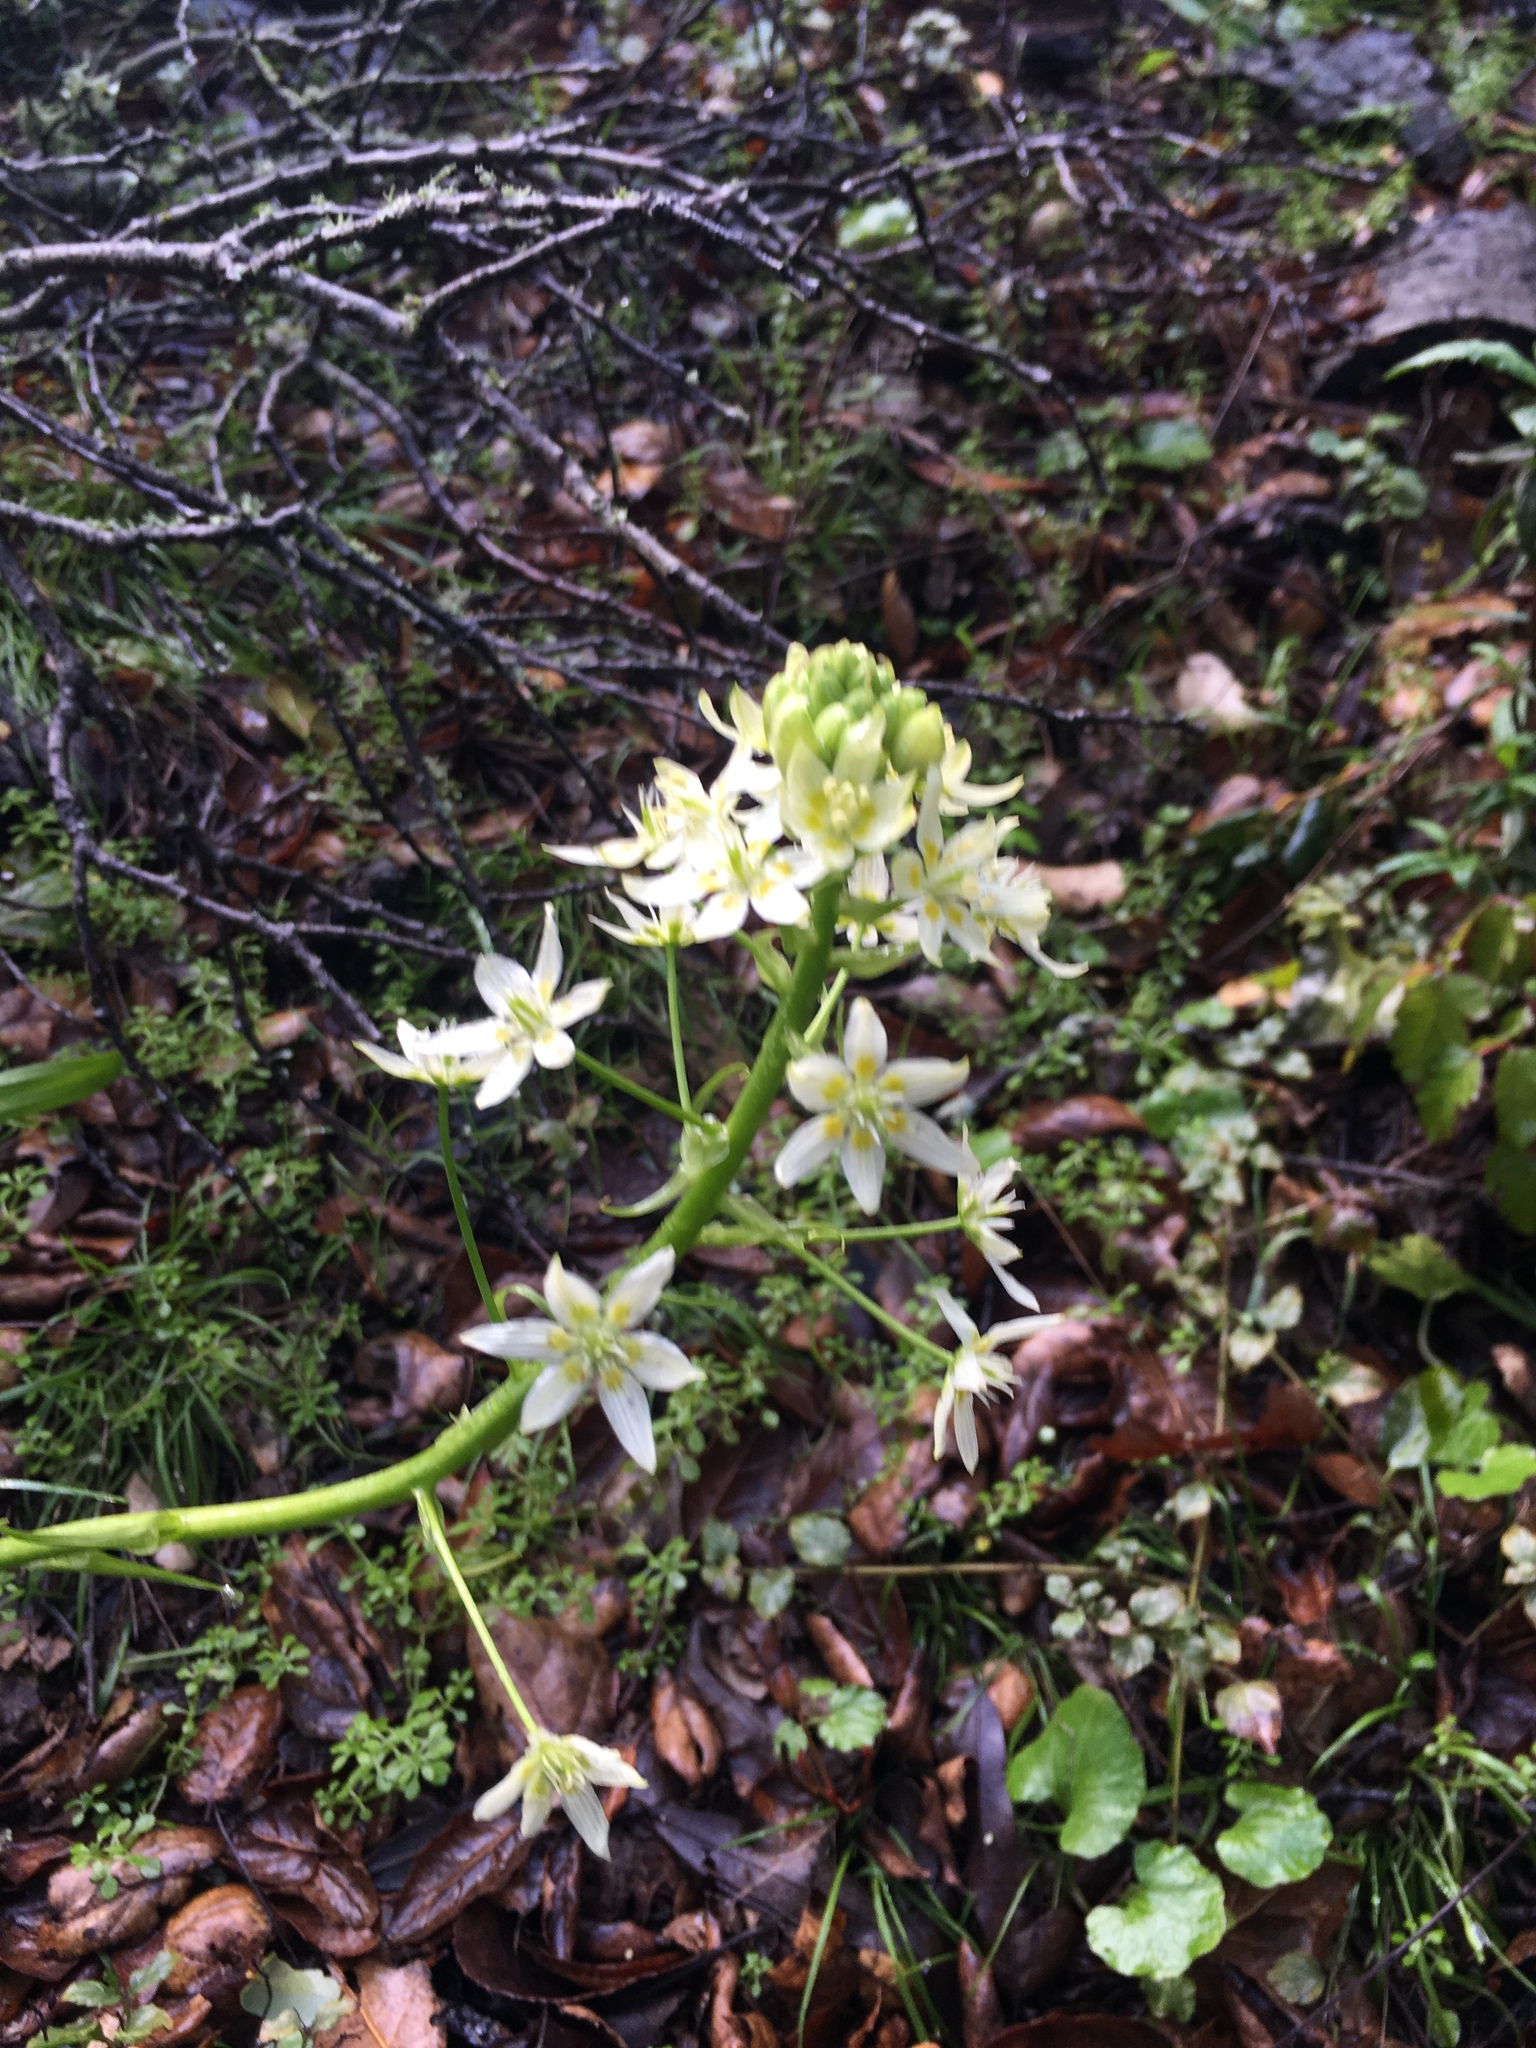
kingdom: Plantae
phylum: Tracheophyta
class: Liliopsida
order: Liliales
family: Melanthiaceae
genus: Toxicoscordion
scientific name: Toxicoscordion fremontii
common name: Fremont's death camas
